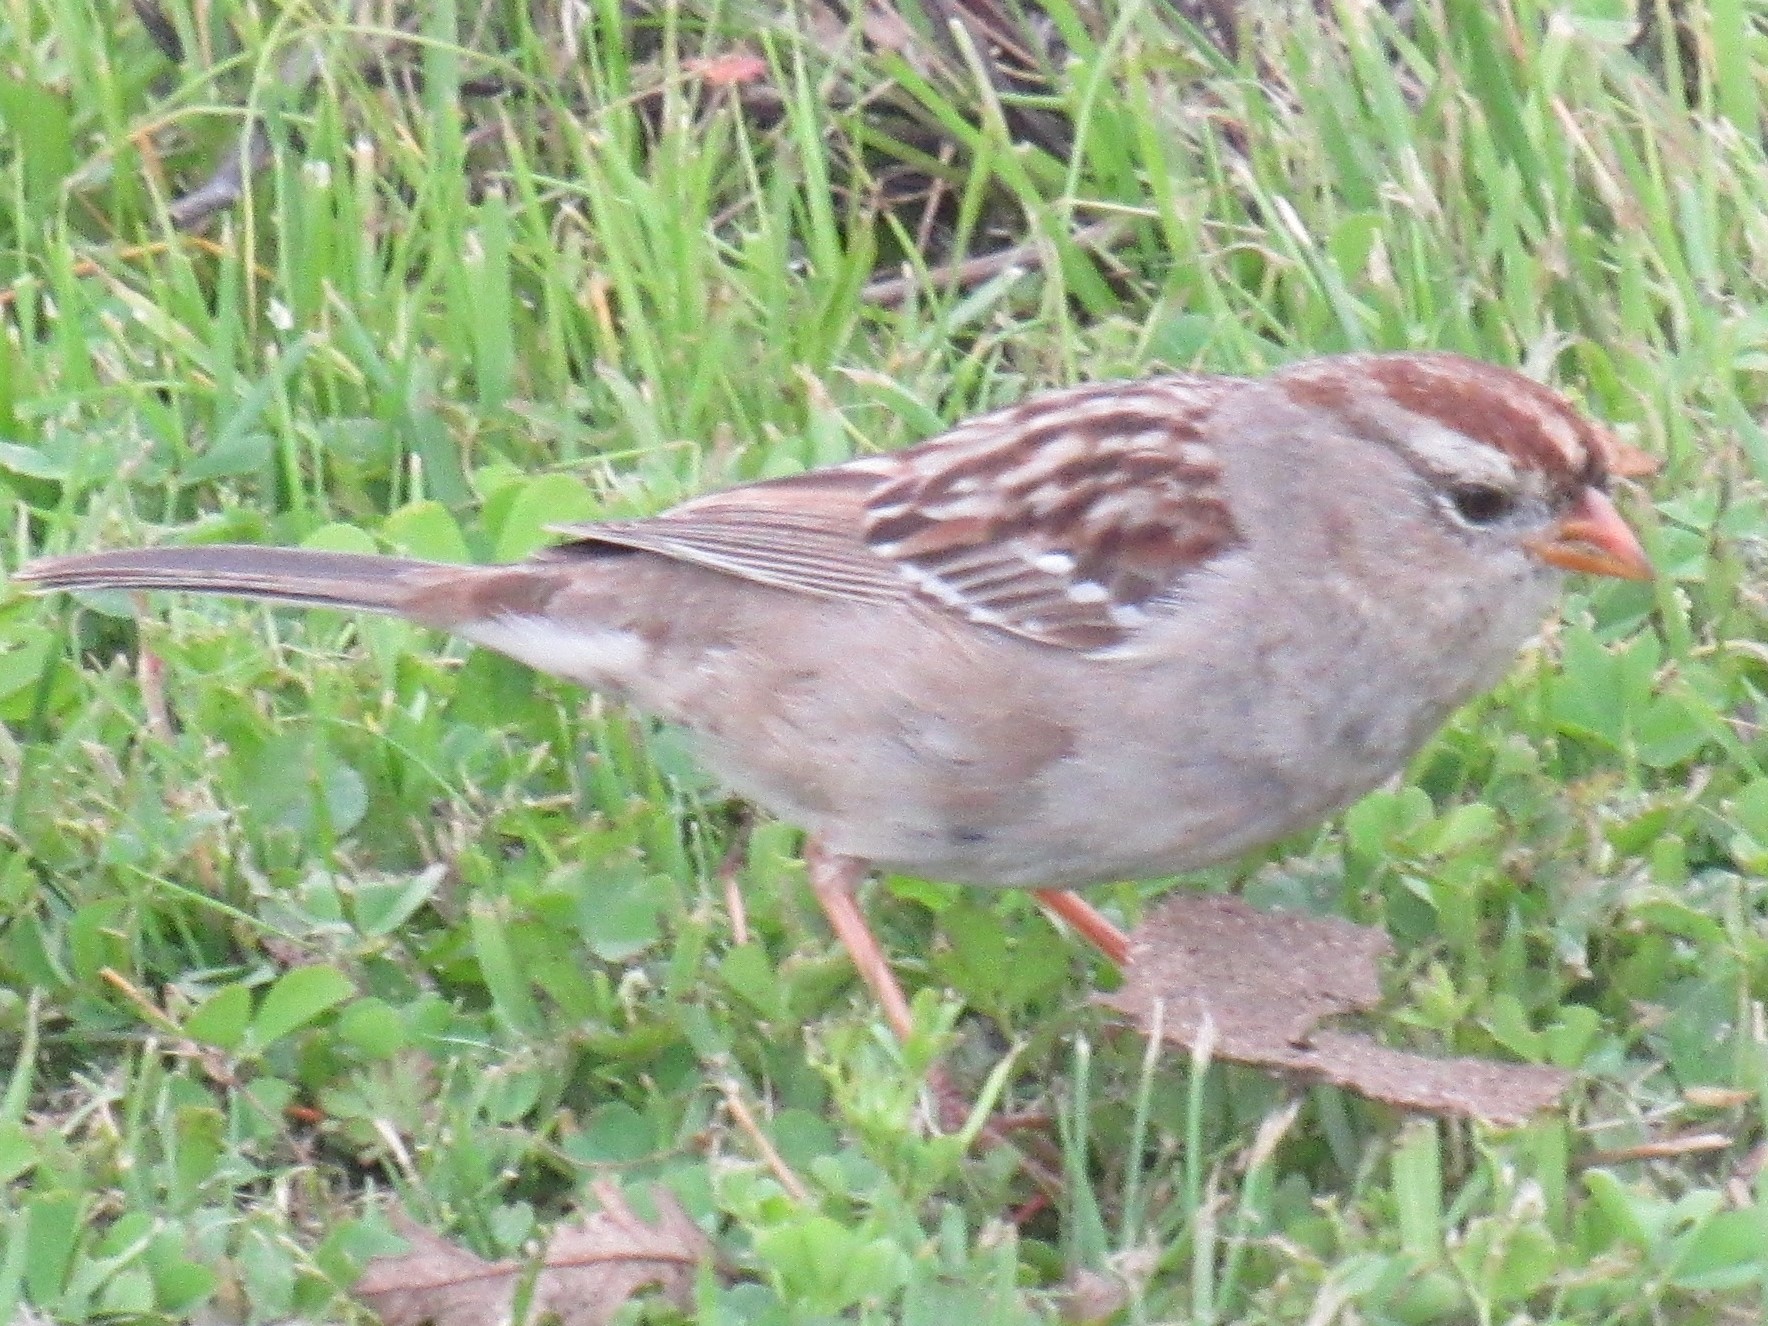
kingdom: Animalia
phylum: Chordata
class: Aves
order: Passeriformes
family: Passerellidae
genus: Zonotrichia
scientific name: Zonotrichia leucophrys
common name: White-crowned sparrow
